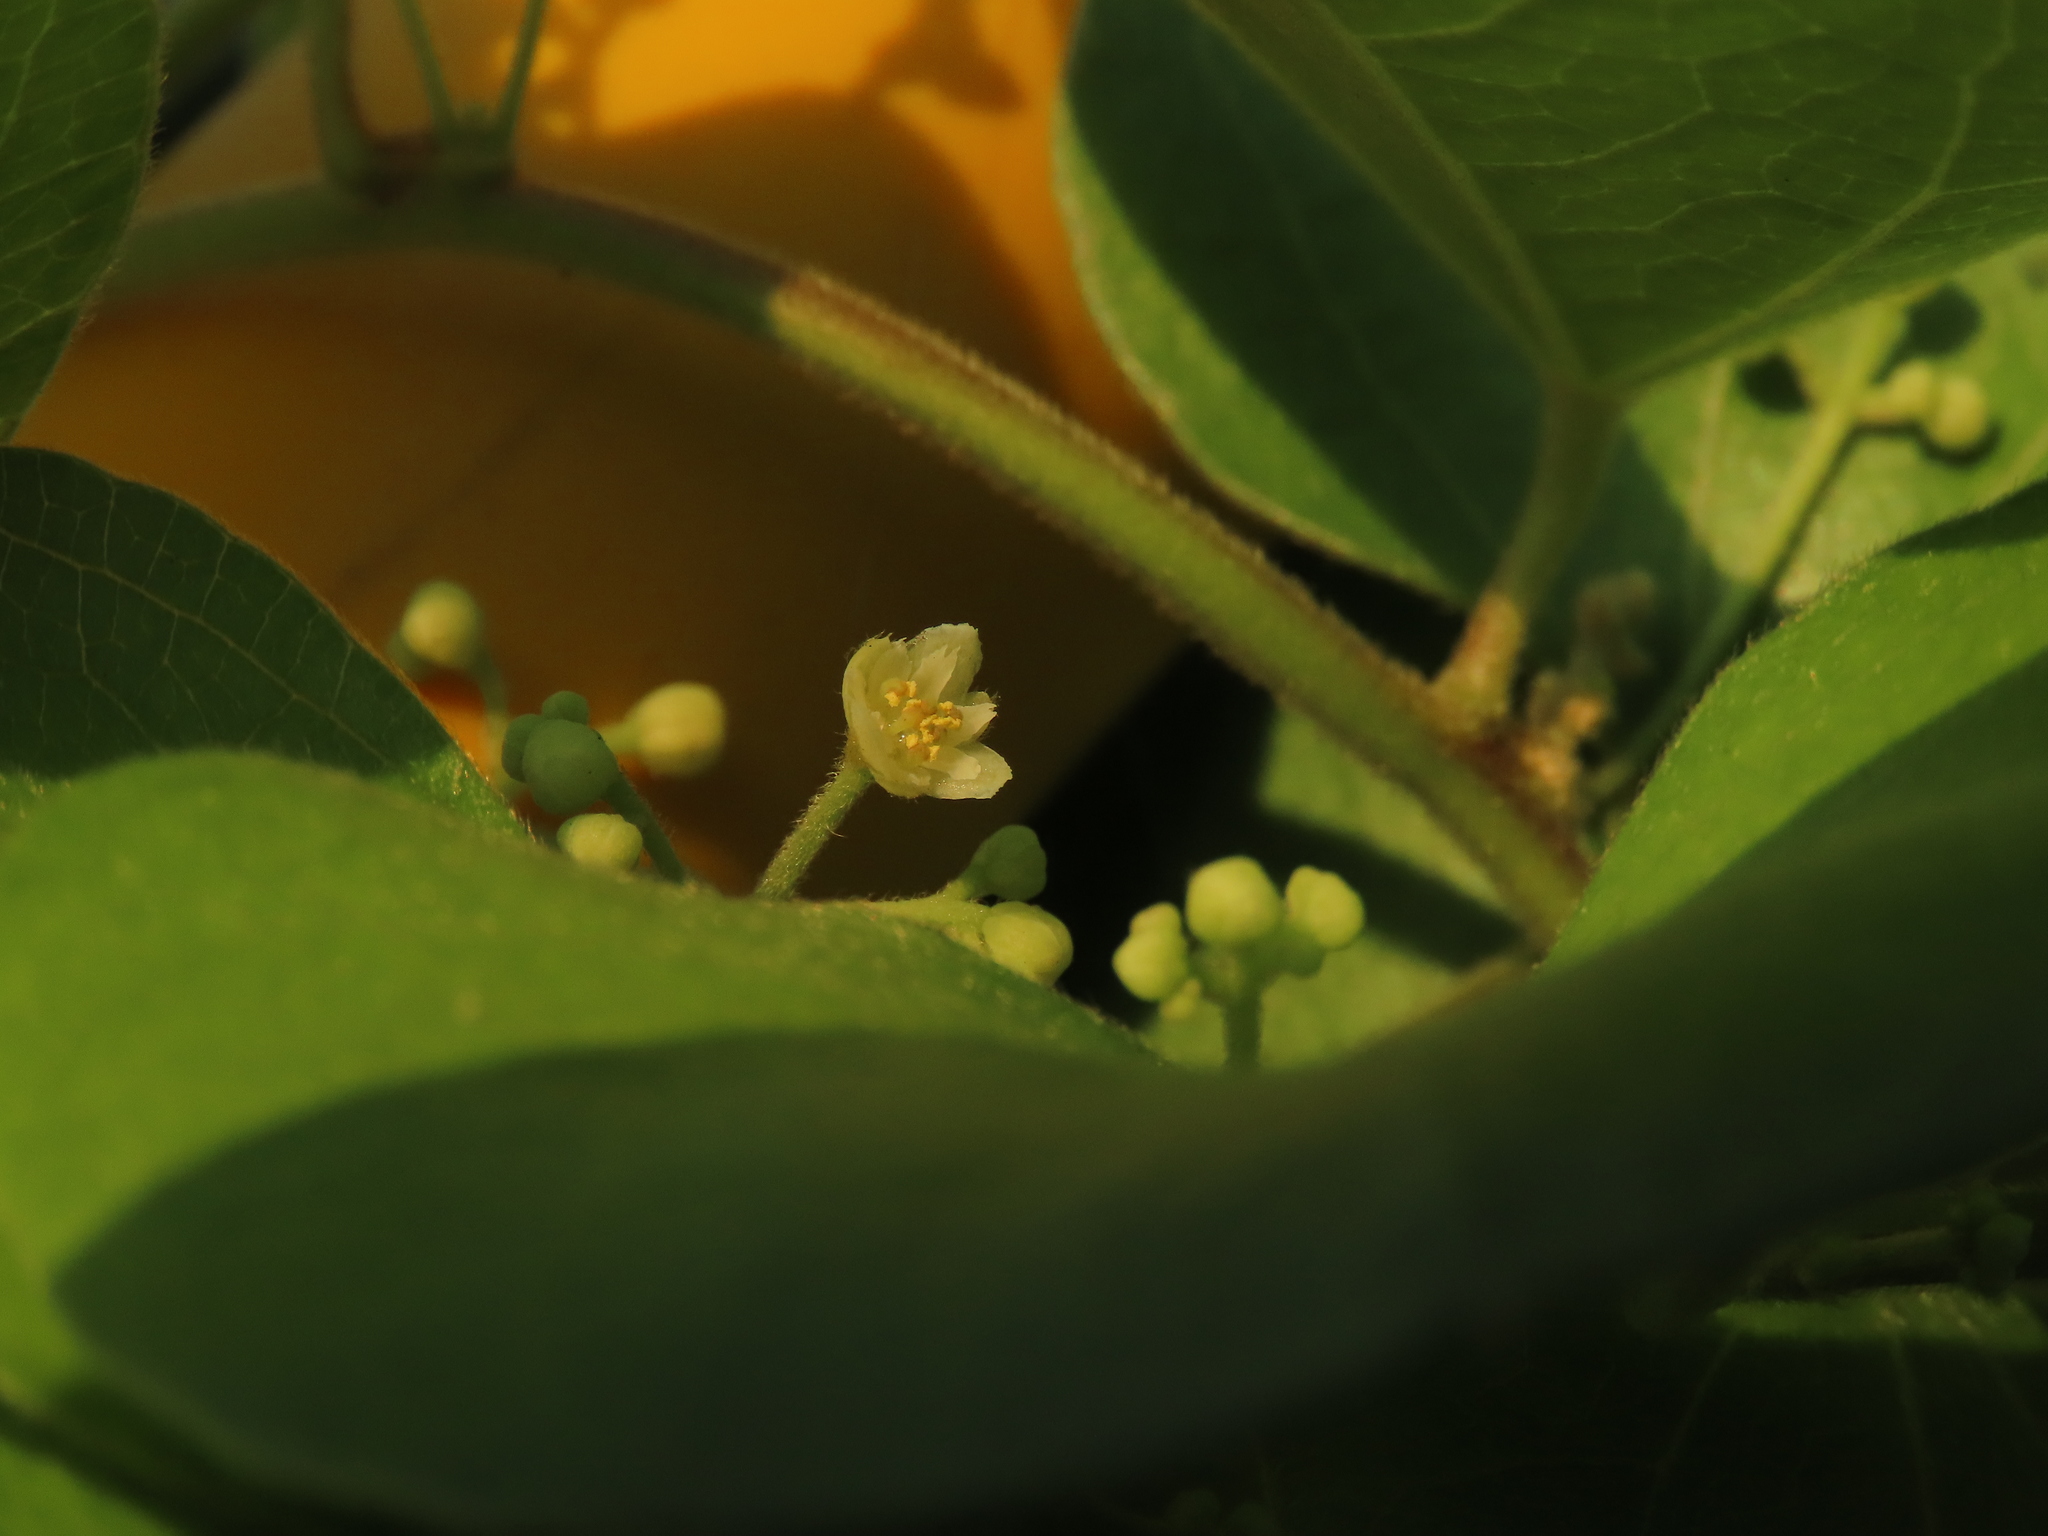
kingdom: Plantae
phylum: Tracheophyta
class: Magnoliopsida
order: Ranunculales
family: Menispermaceae
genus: Cocculus
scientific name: Cocculus orbiculatus
